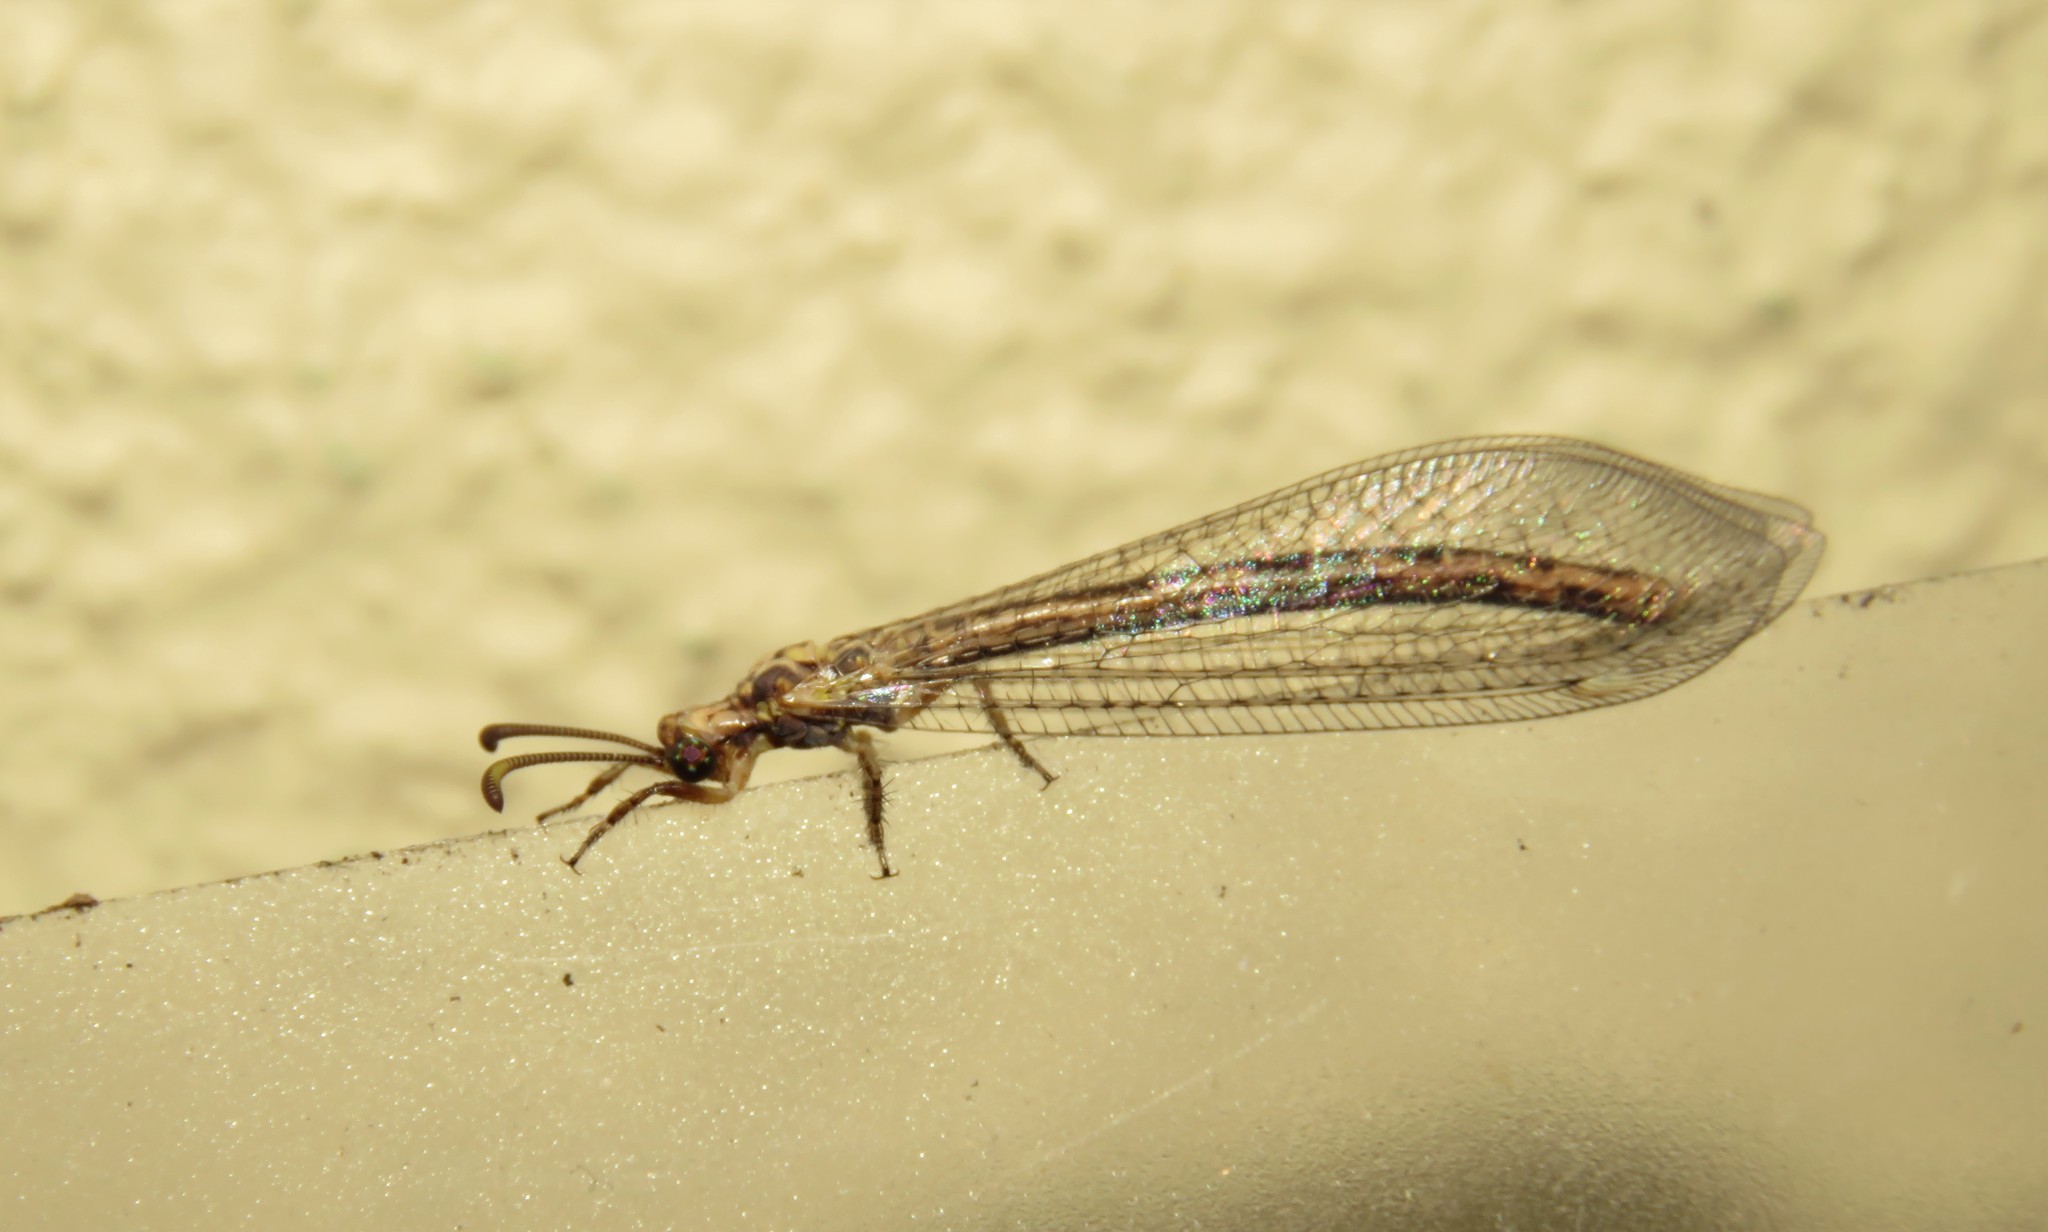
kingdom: Animalia
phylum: Arthropoda
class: Insecta
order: Neuroptera
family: Myrmeleontidae
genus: Macronemurus
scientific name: Macronemurus appendiculatus
